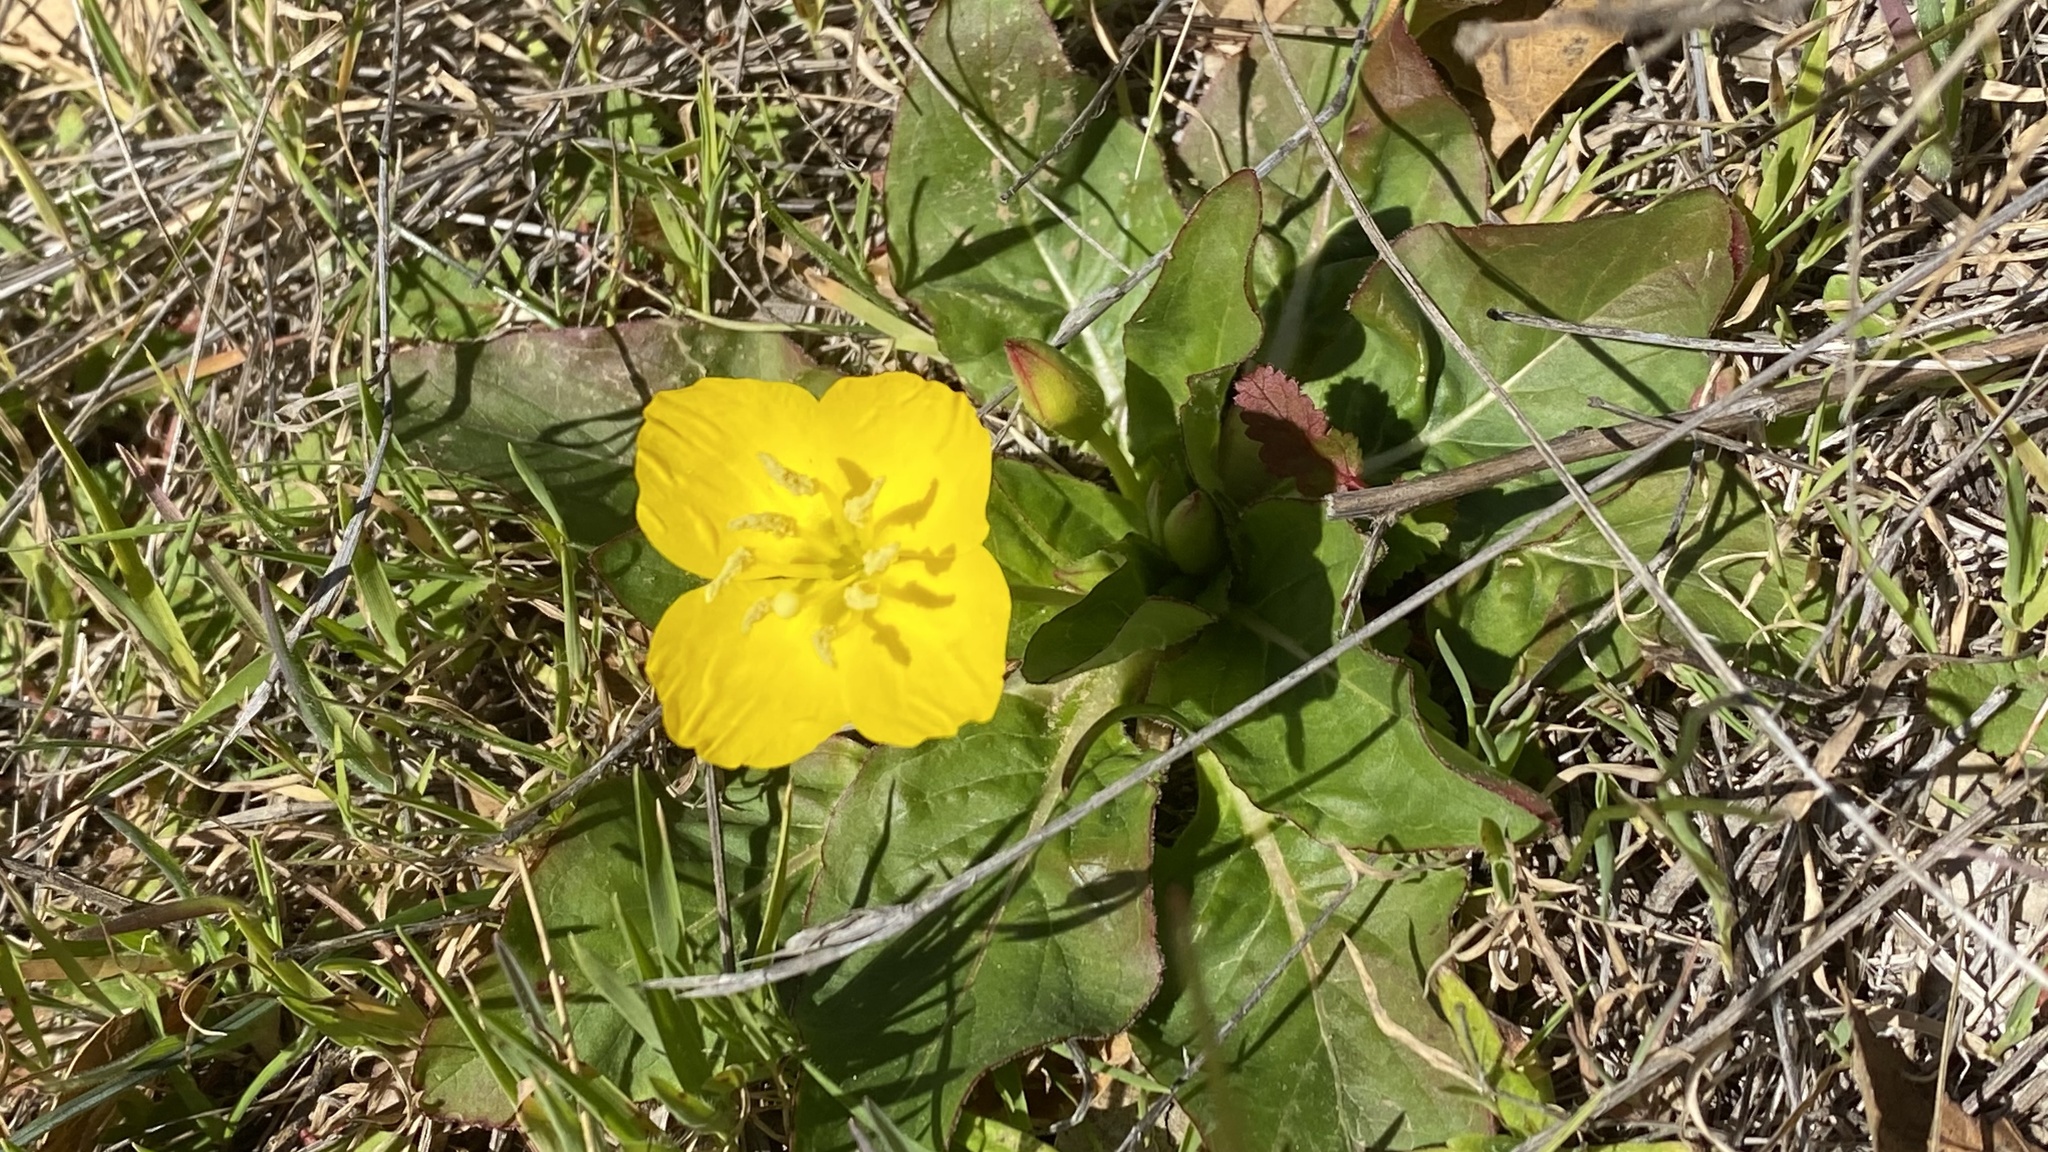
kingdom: Plantae
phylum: Tracheophyta
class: Magnoliopsida
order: Myrtales
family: Onagraceae
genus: Taraxia
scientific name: Taraxia ovata
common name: Goldeneggs
